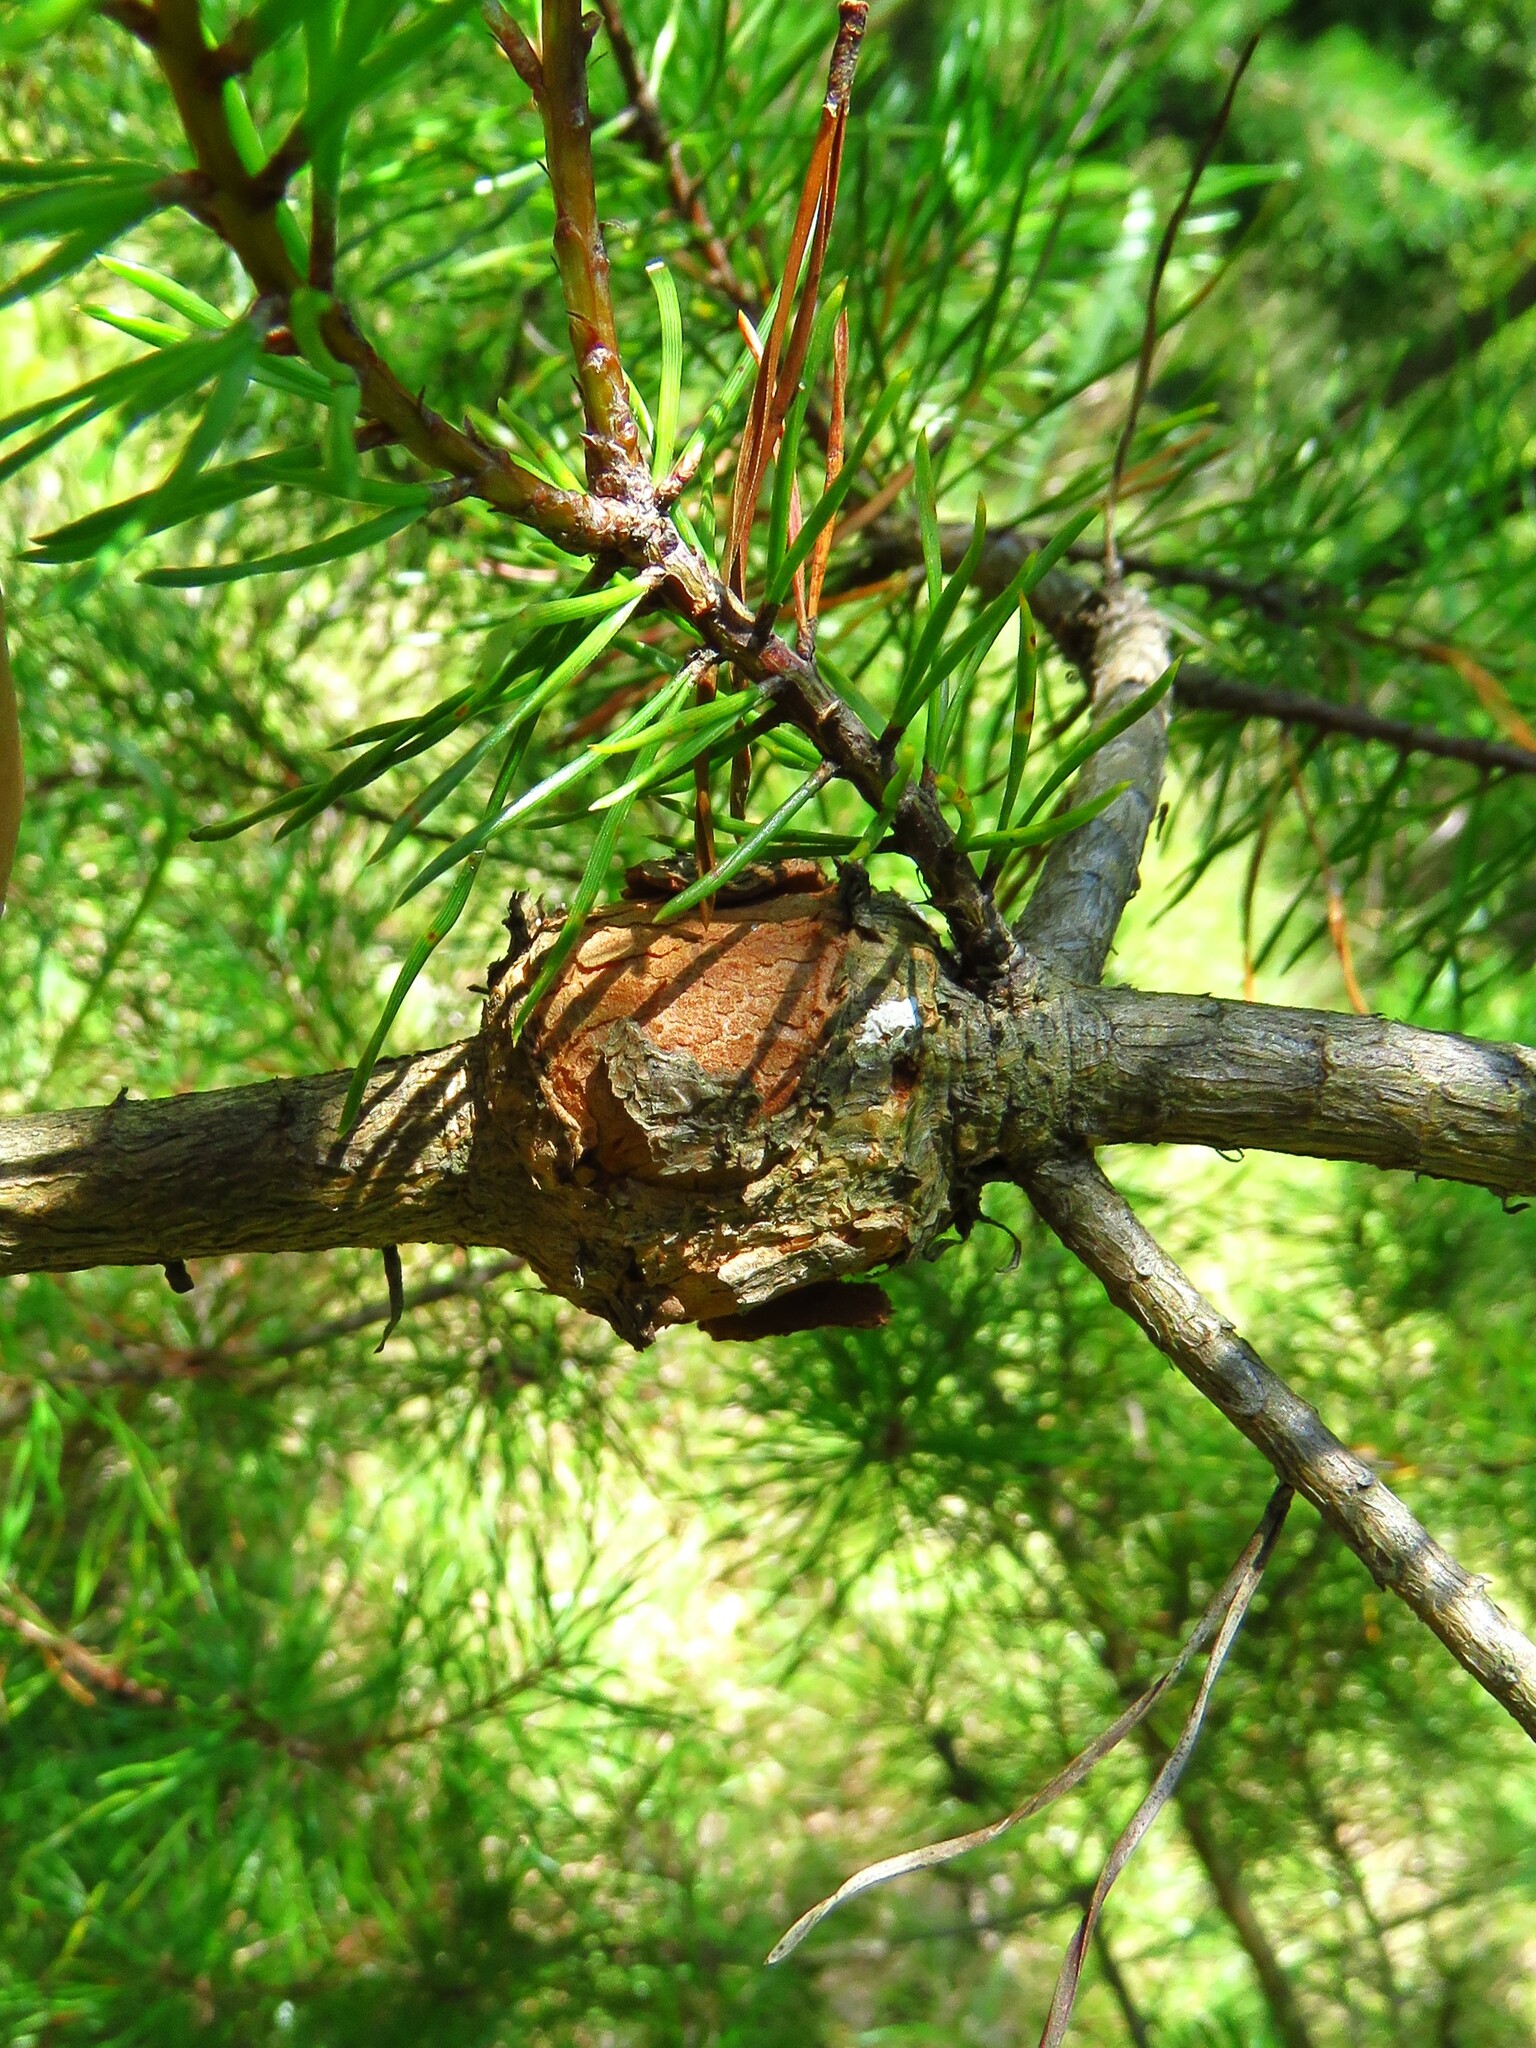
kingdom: Fungi
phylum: Basidiomycota
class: Pucciniomycetes
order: Pucciniales
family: Cronartiaceae
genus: Cronartium
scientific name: Cronartium quercuum
